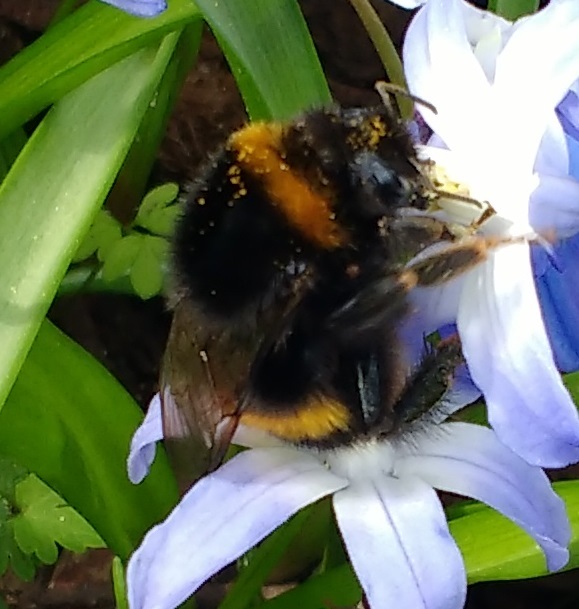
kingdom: Animalia
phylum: Arthropoda
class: Insecta
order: Hymenoptera
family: Apidae
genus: Bombus
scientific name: Bombus terrestris
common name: Buff-tailed bumblebee
